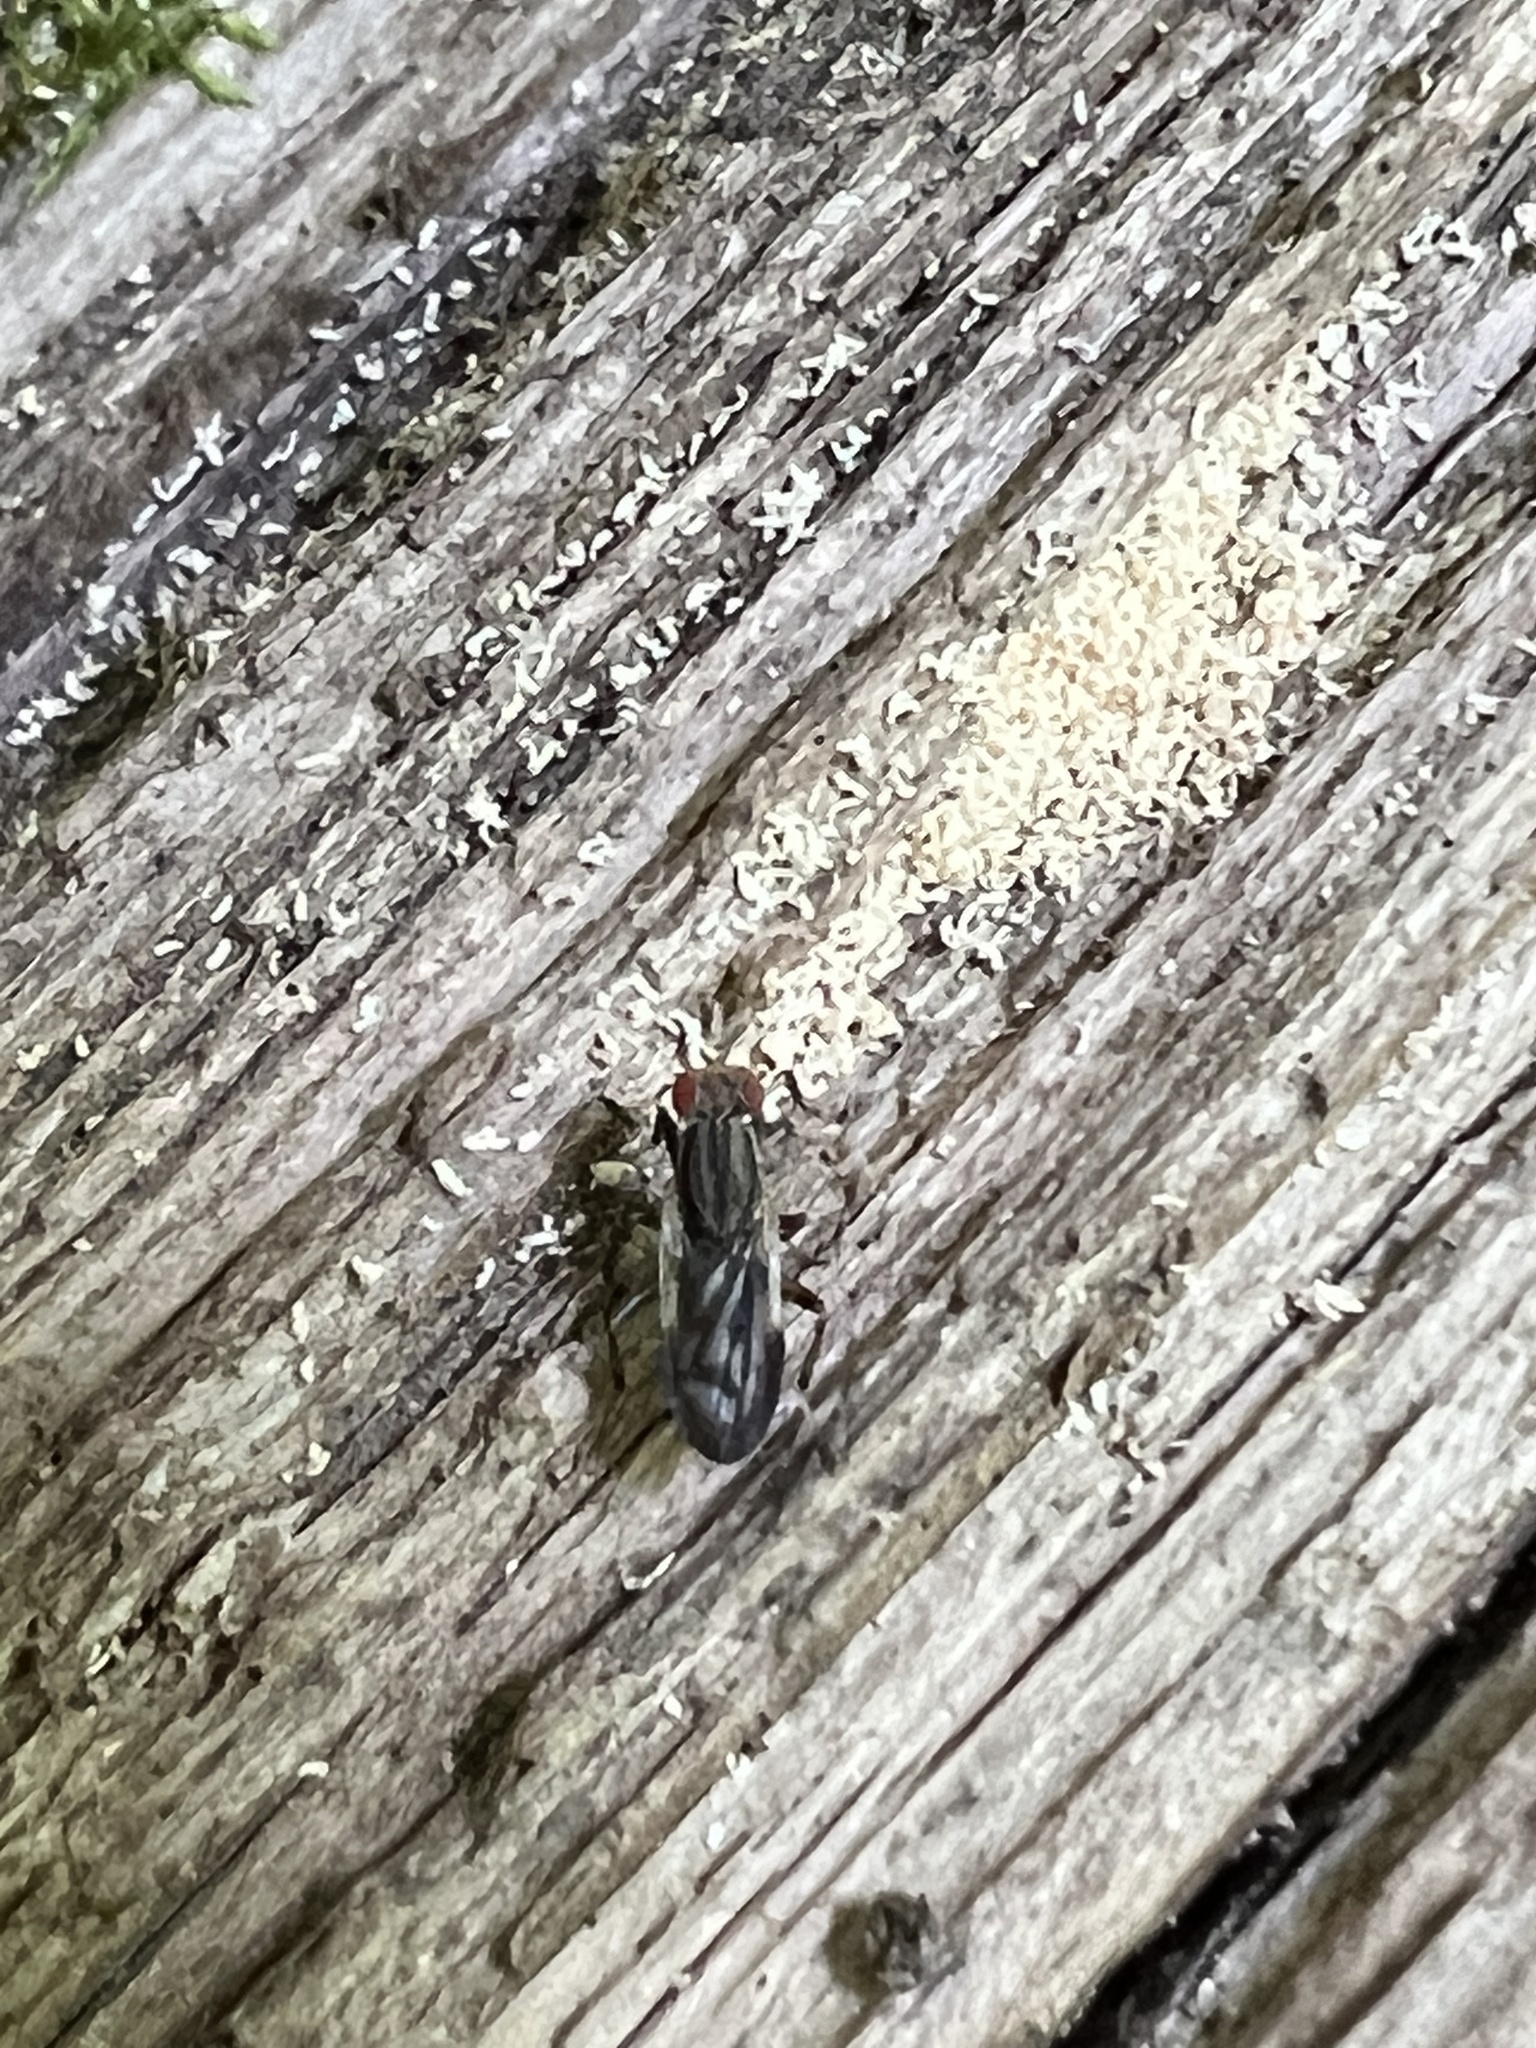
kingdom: Animalia
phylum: Arthropoda
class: Insecta
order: Diptera
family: Sciomyzidae
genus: Pherbellia
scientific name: Pherbellia albovaria
